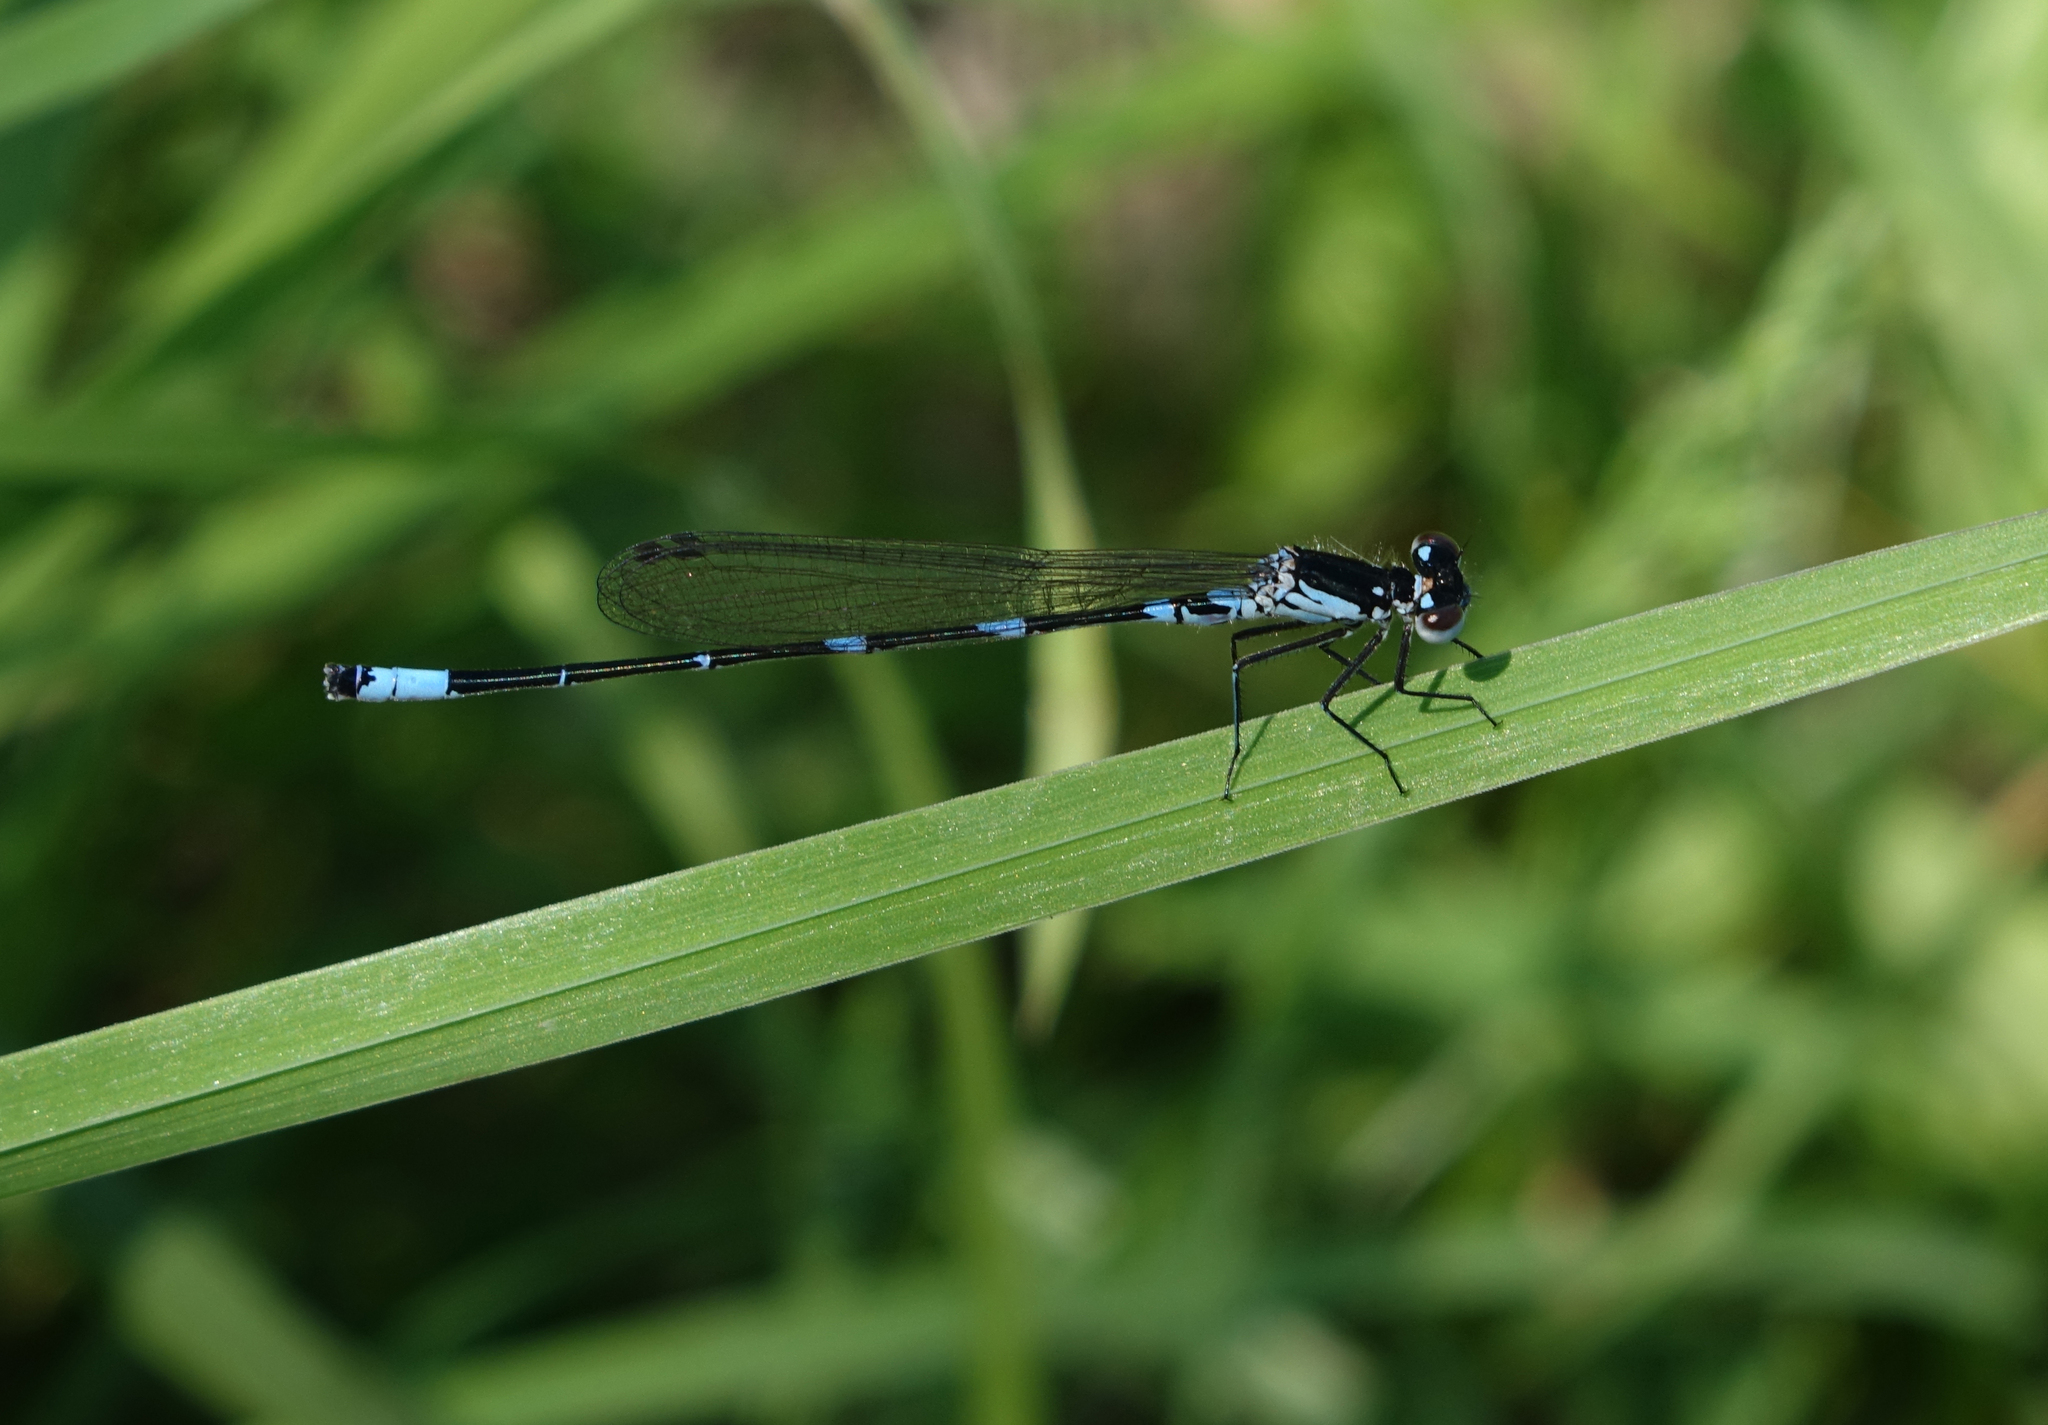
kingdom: Animalia
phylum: Arthropoda
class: Insecta
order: Odonata
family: Coenagrionidae
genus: Coenagrion
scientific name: Coenagrion pulchellum
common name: Variable bluet
